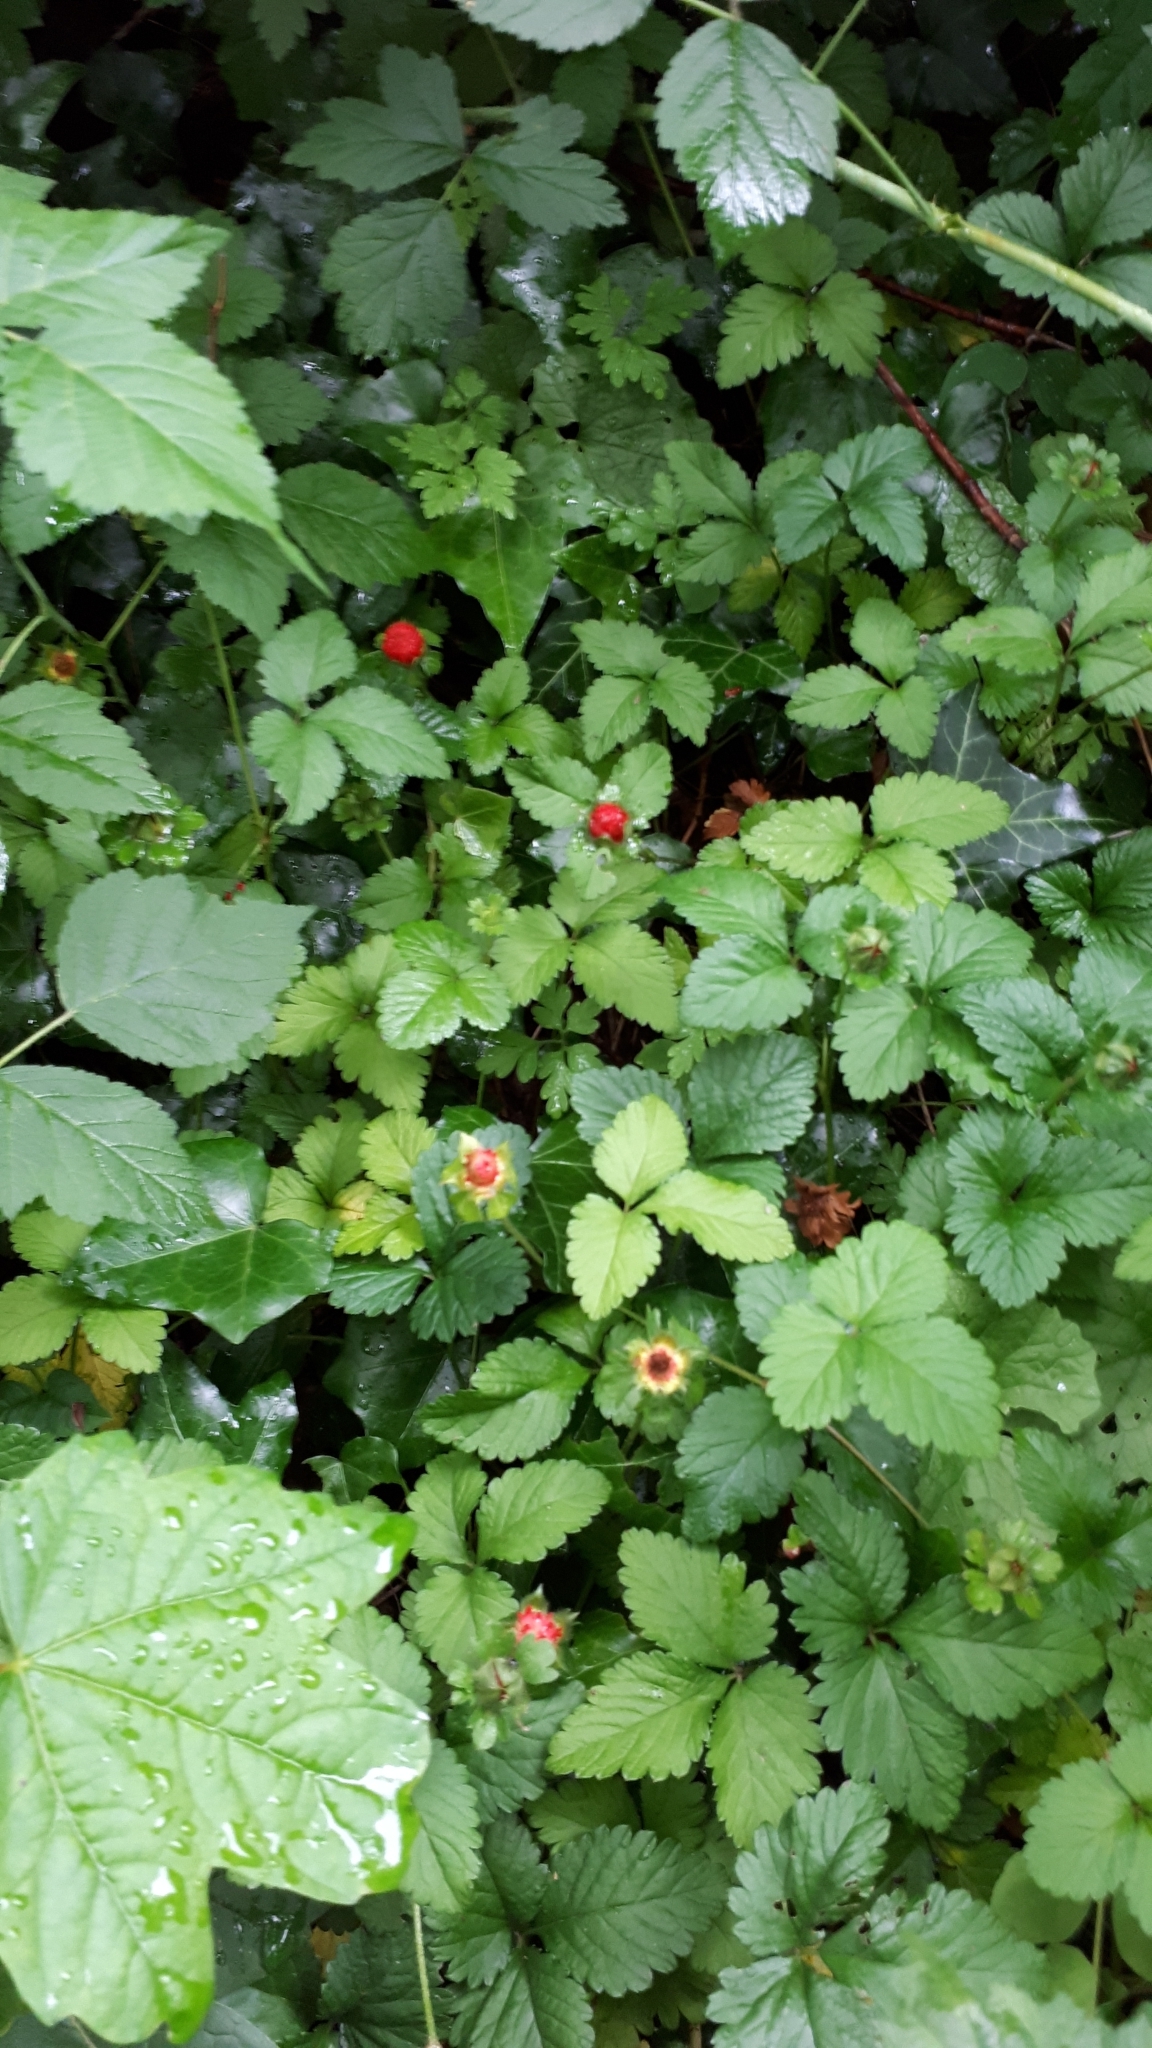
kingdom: Plantae
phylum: Tracheophyta
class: Magnoliopsida
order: Rosales
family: Rosaceae
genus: Potentilla
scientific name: Potentilla indica
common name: Yellow-flowered strawberry
